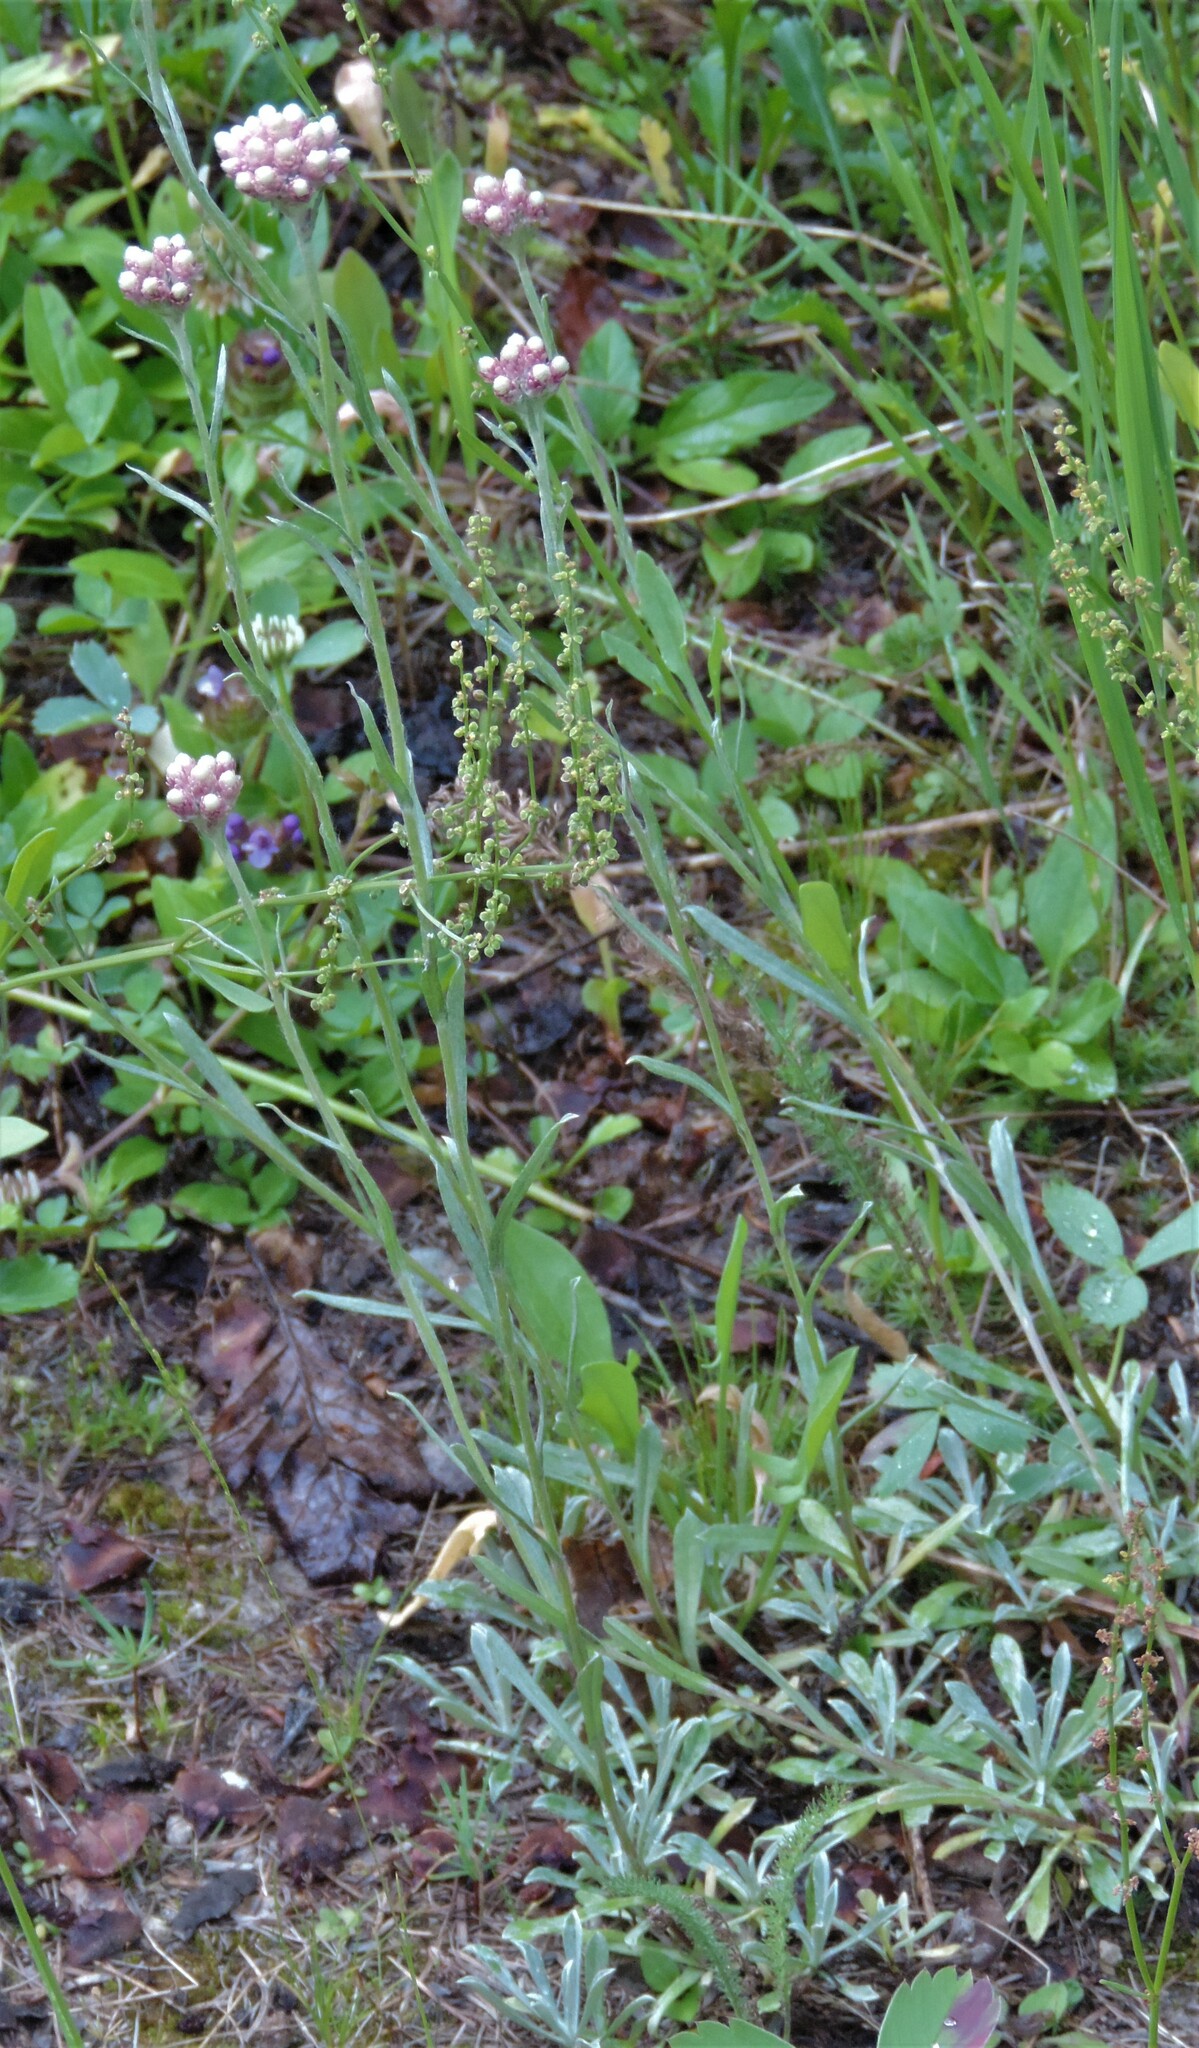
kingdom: Plantae
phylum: Tracheophyta
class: Magnoliopsida
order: Asterales
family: Asteraceae
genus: Antennaria
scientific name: Antennaria rosea
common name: Rosy pussytoes
